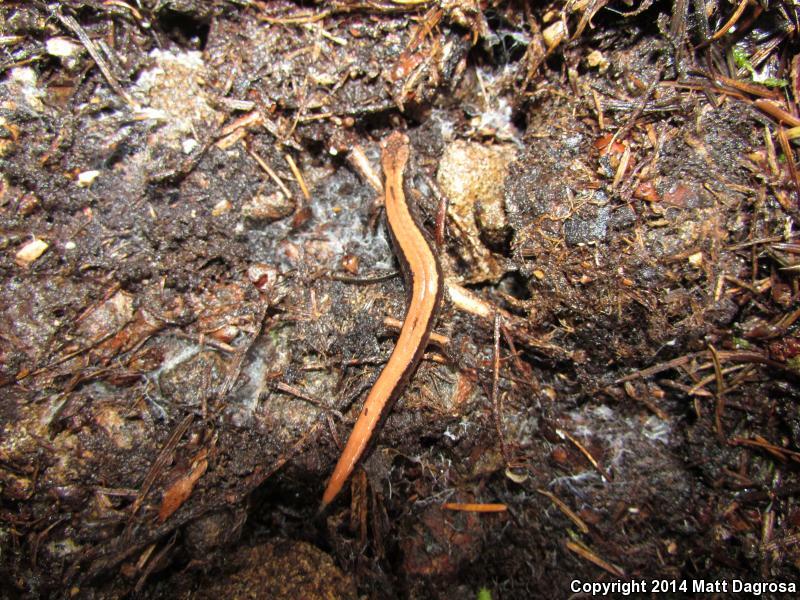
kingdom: Animalia
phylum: Chordata
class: Amphibia
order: Caudata
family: Plethodontidae
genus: Plethodon
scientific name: Plethodon vehiculum
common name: Western red-backed salamander
